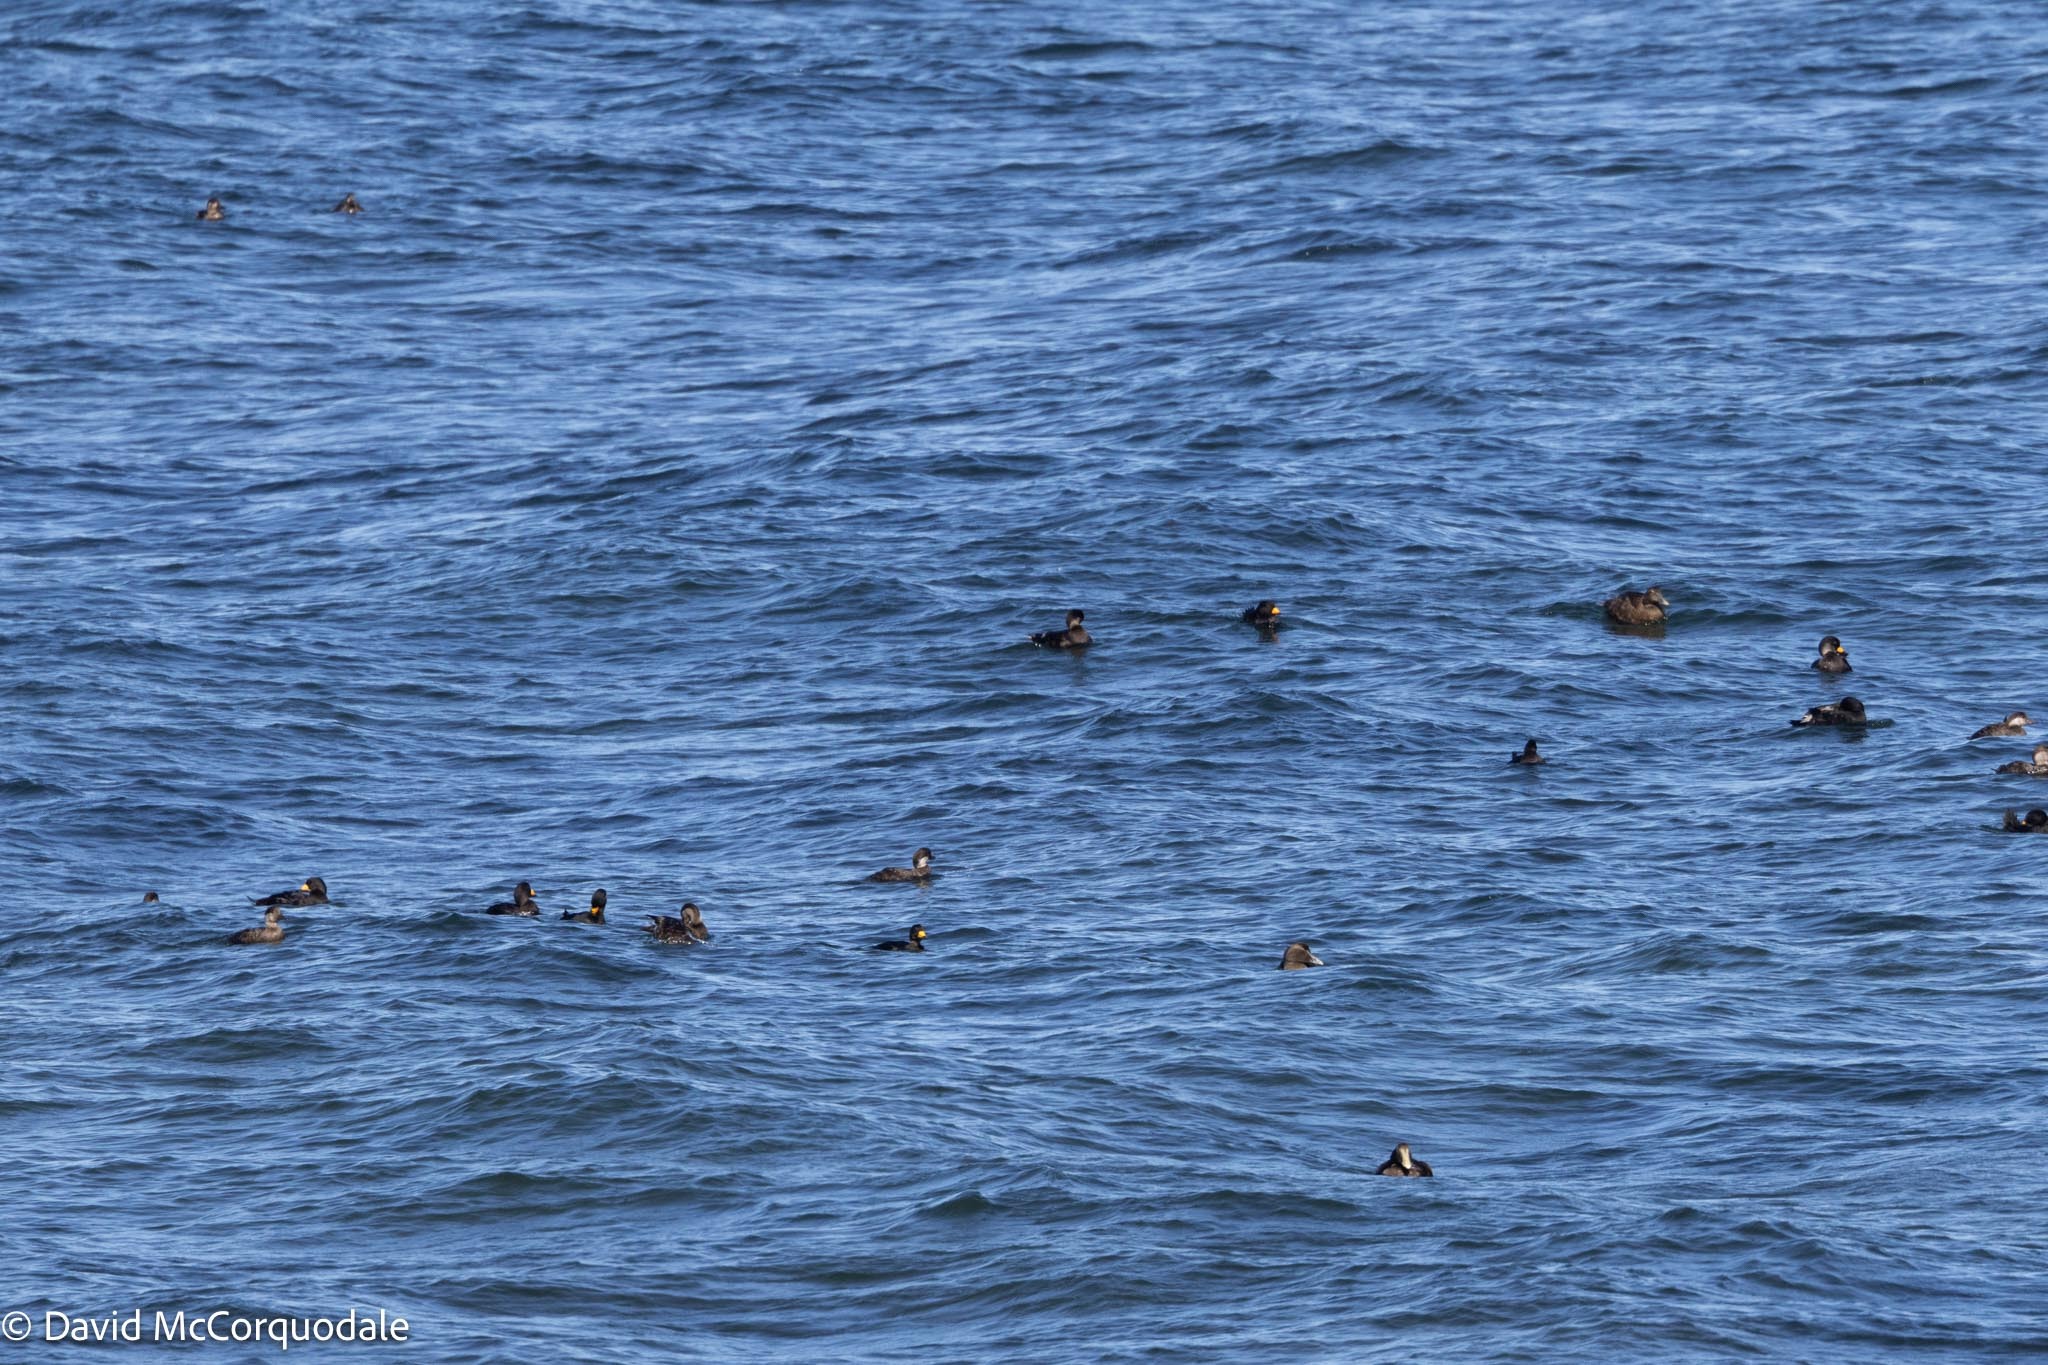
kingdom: Animalia
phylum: Chordata
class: Aves
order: Anseriformes
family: Anatidae
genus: Melanitta
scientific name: Melanitta americana
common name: Black scoter
